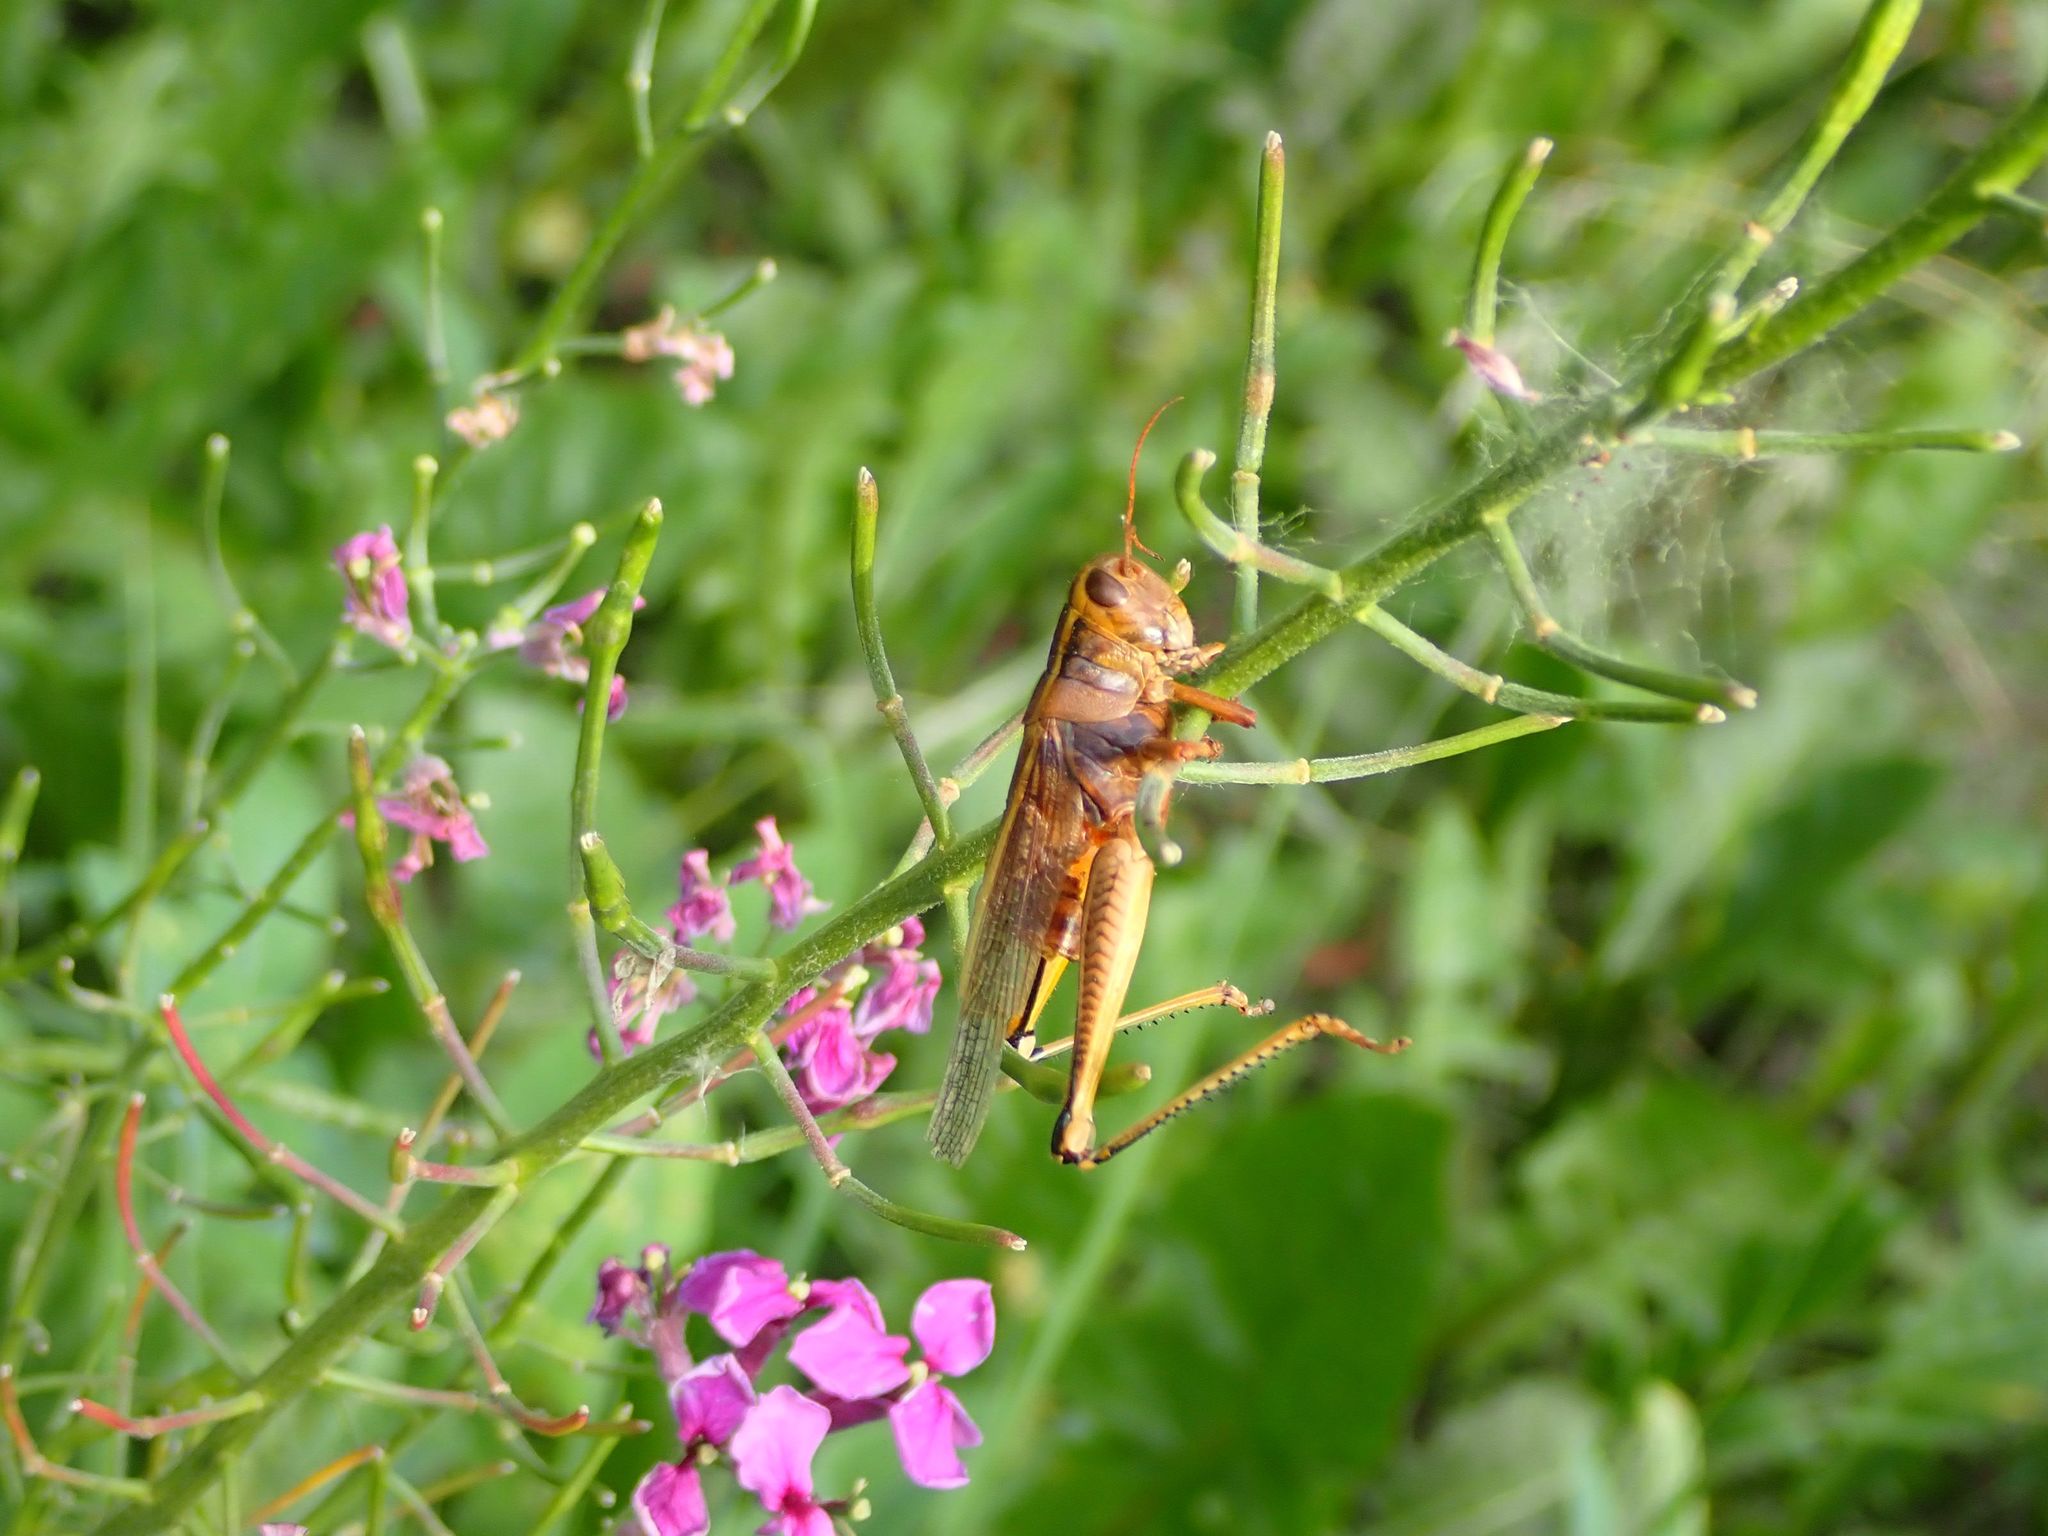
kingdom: Animalia
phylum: Arthropoda
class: Insecta
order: Orthoptera
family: Acrididae
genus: Melanoplus
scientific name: Melanoplus bivittatus
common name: Two-striped grasshopper
